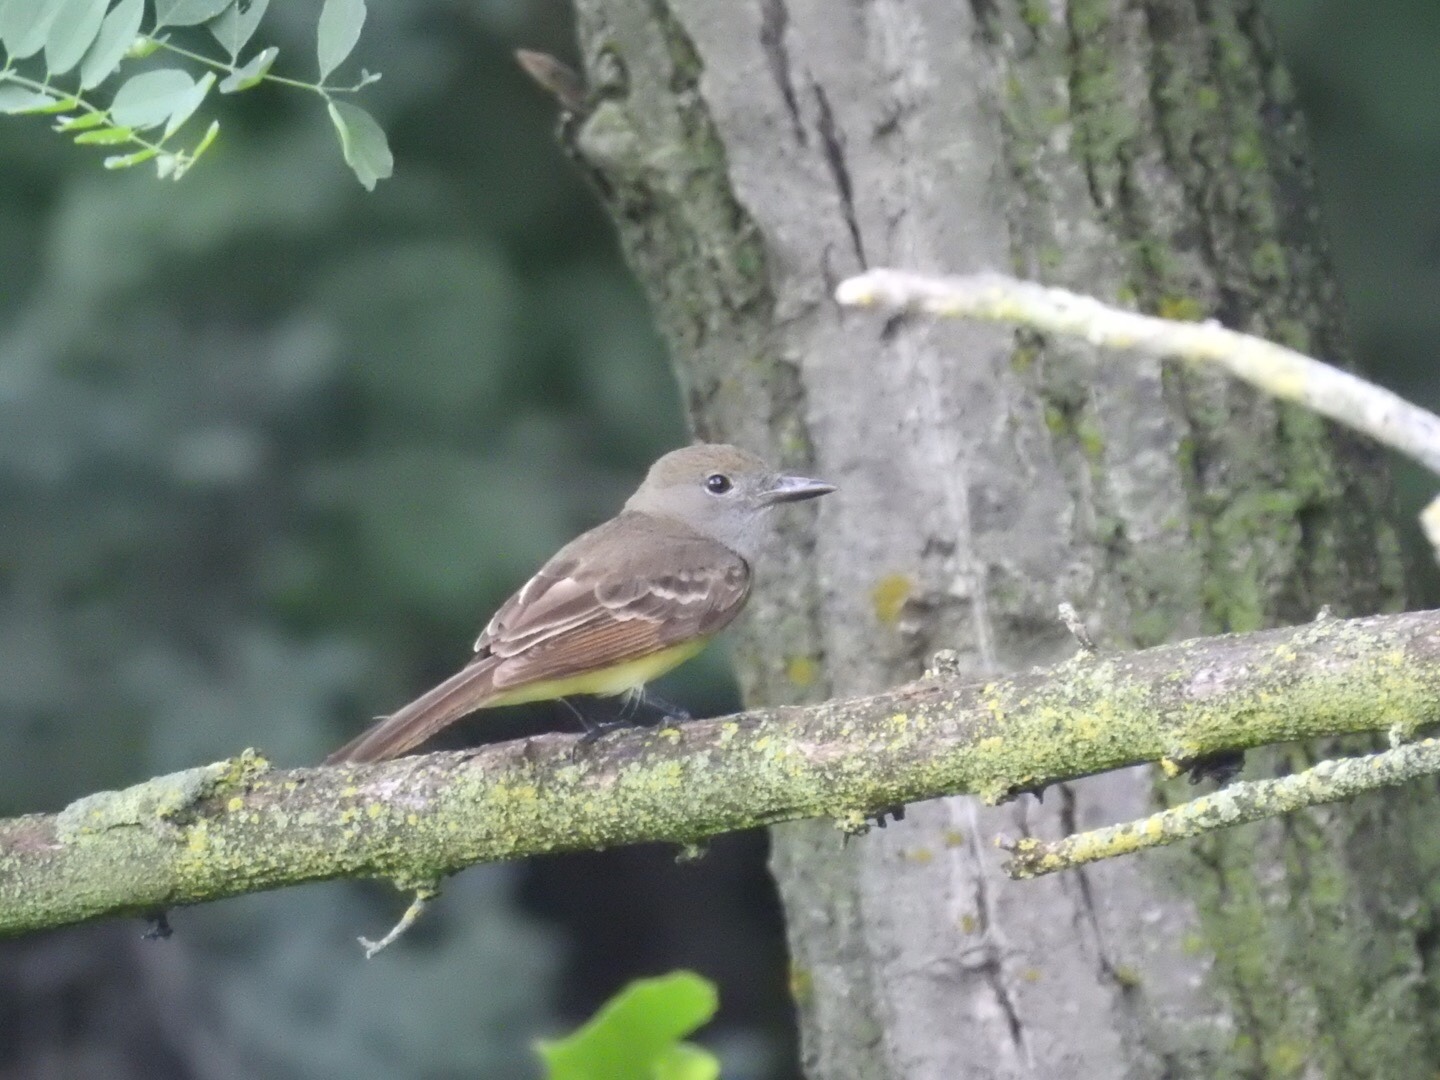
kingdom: Animalia
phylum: Chordata
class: Aves
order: Passeriformes
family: Tyrannidae
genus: Myiarchus
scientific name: Myiarchus crinitus
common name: Great crested flycatcher
